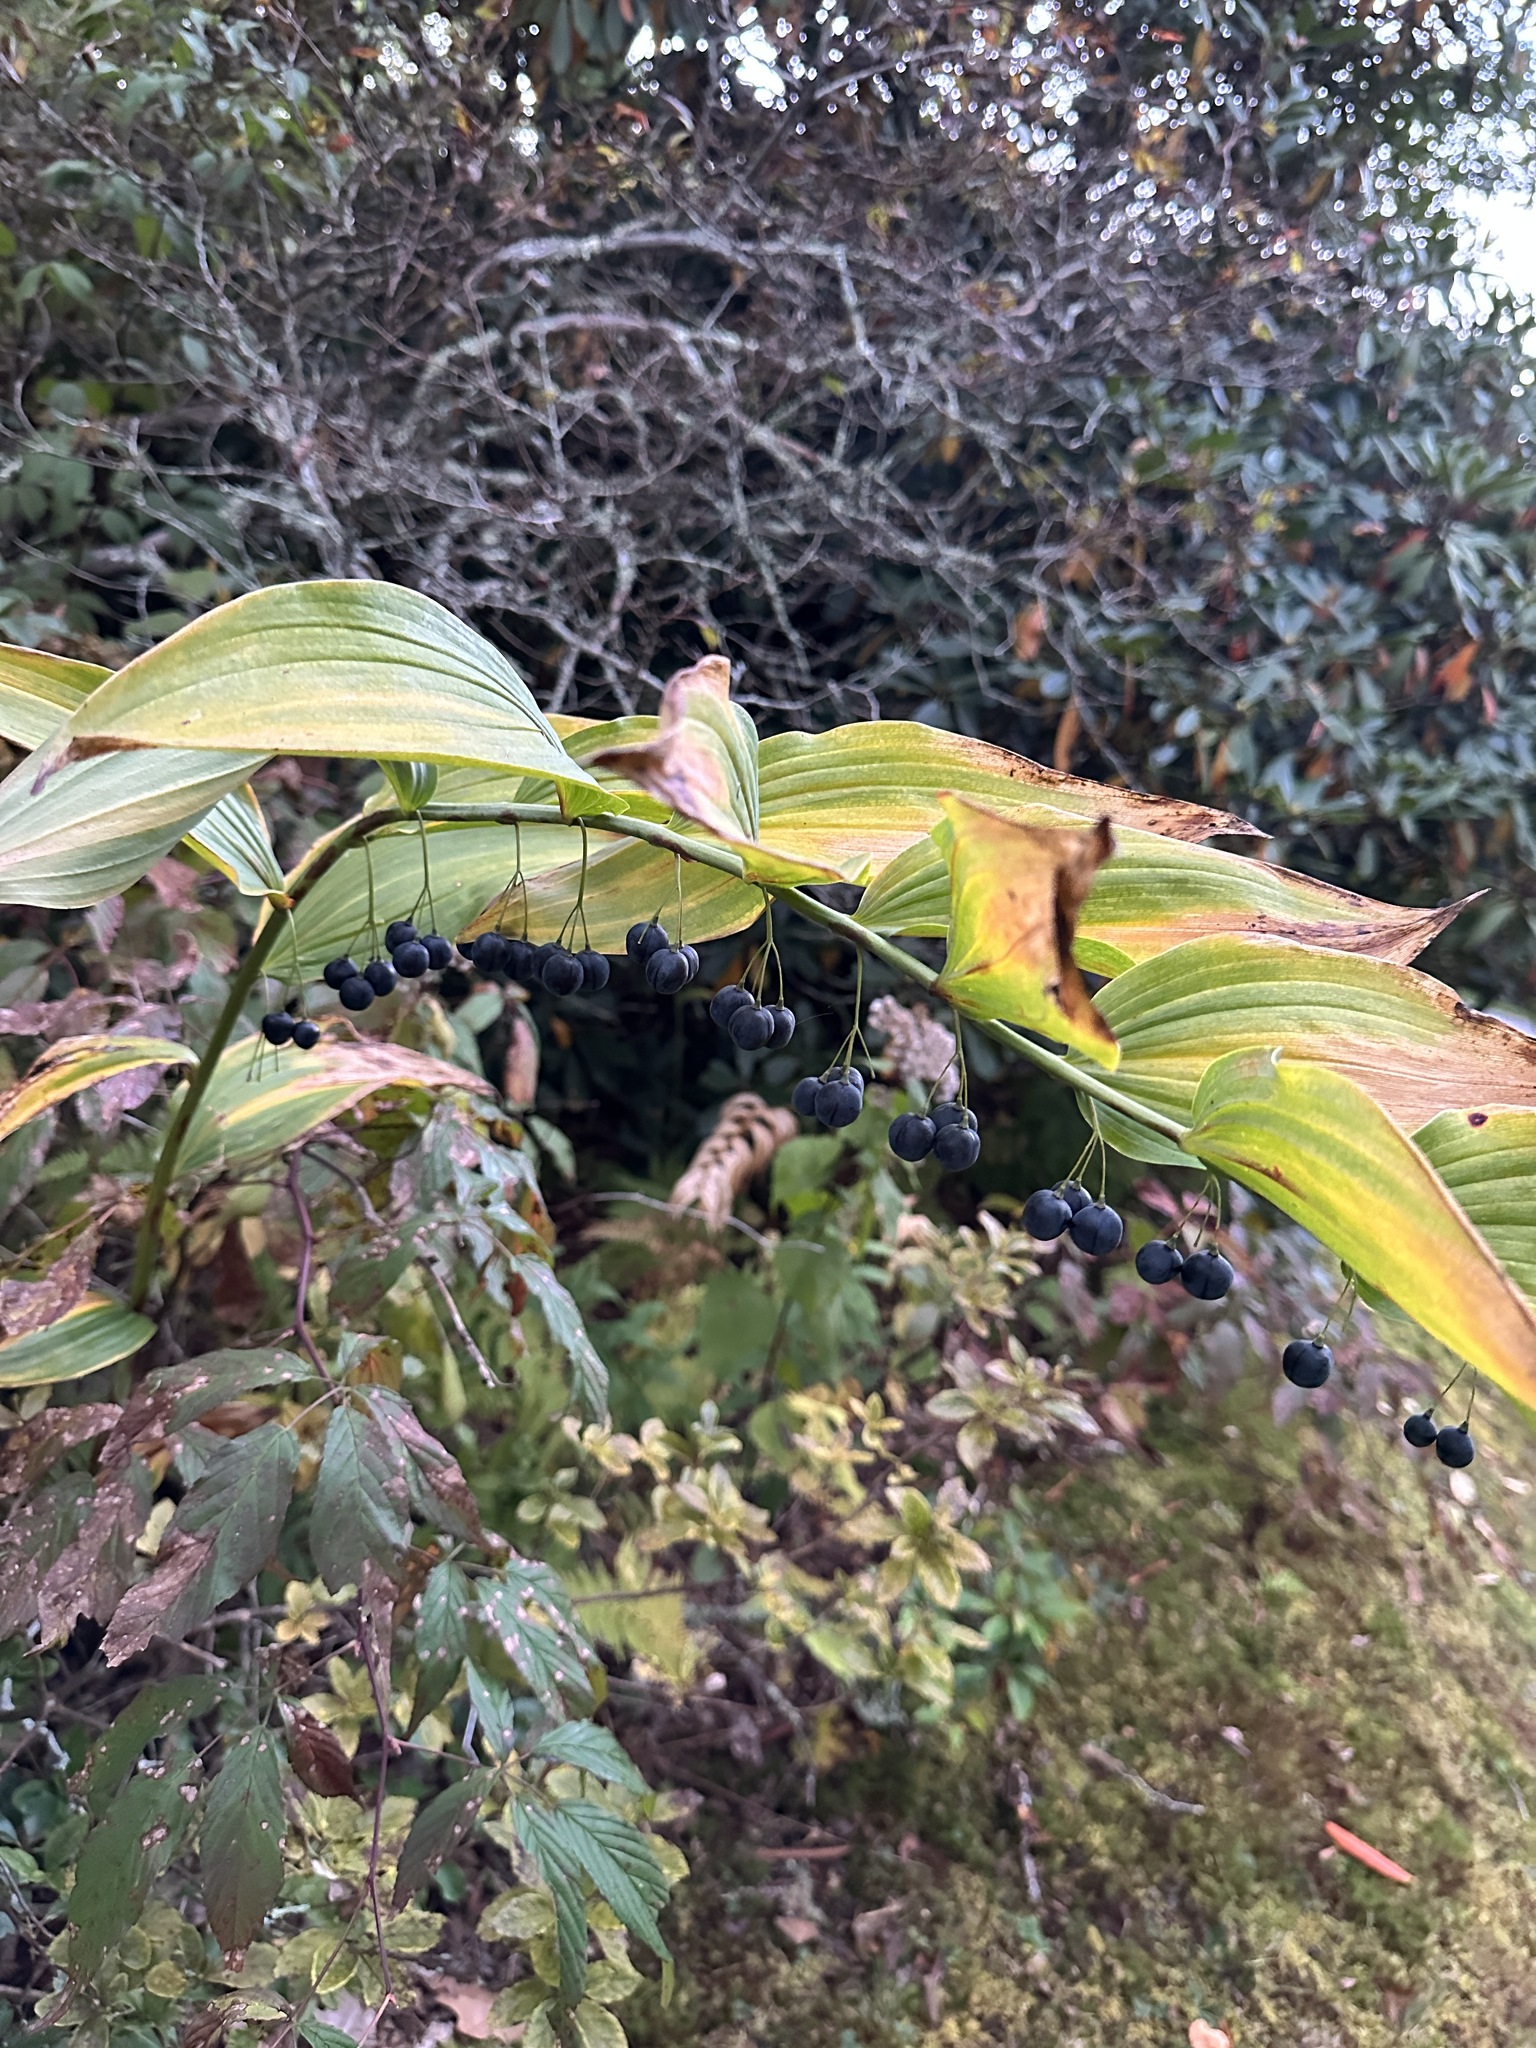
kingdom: Plantae
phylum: Tracheophyta
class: Liliopsida
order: Asparagales
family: Asparagaceae
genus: Polygonatum
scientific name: Polygonatum biflorum
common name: American solomon's-seal
